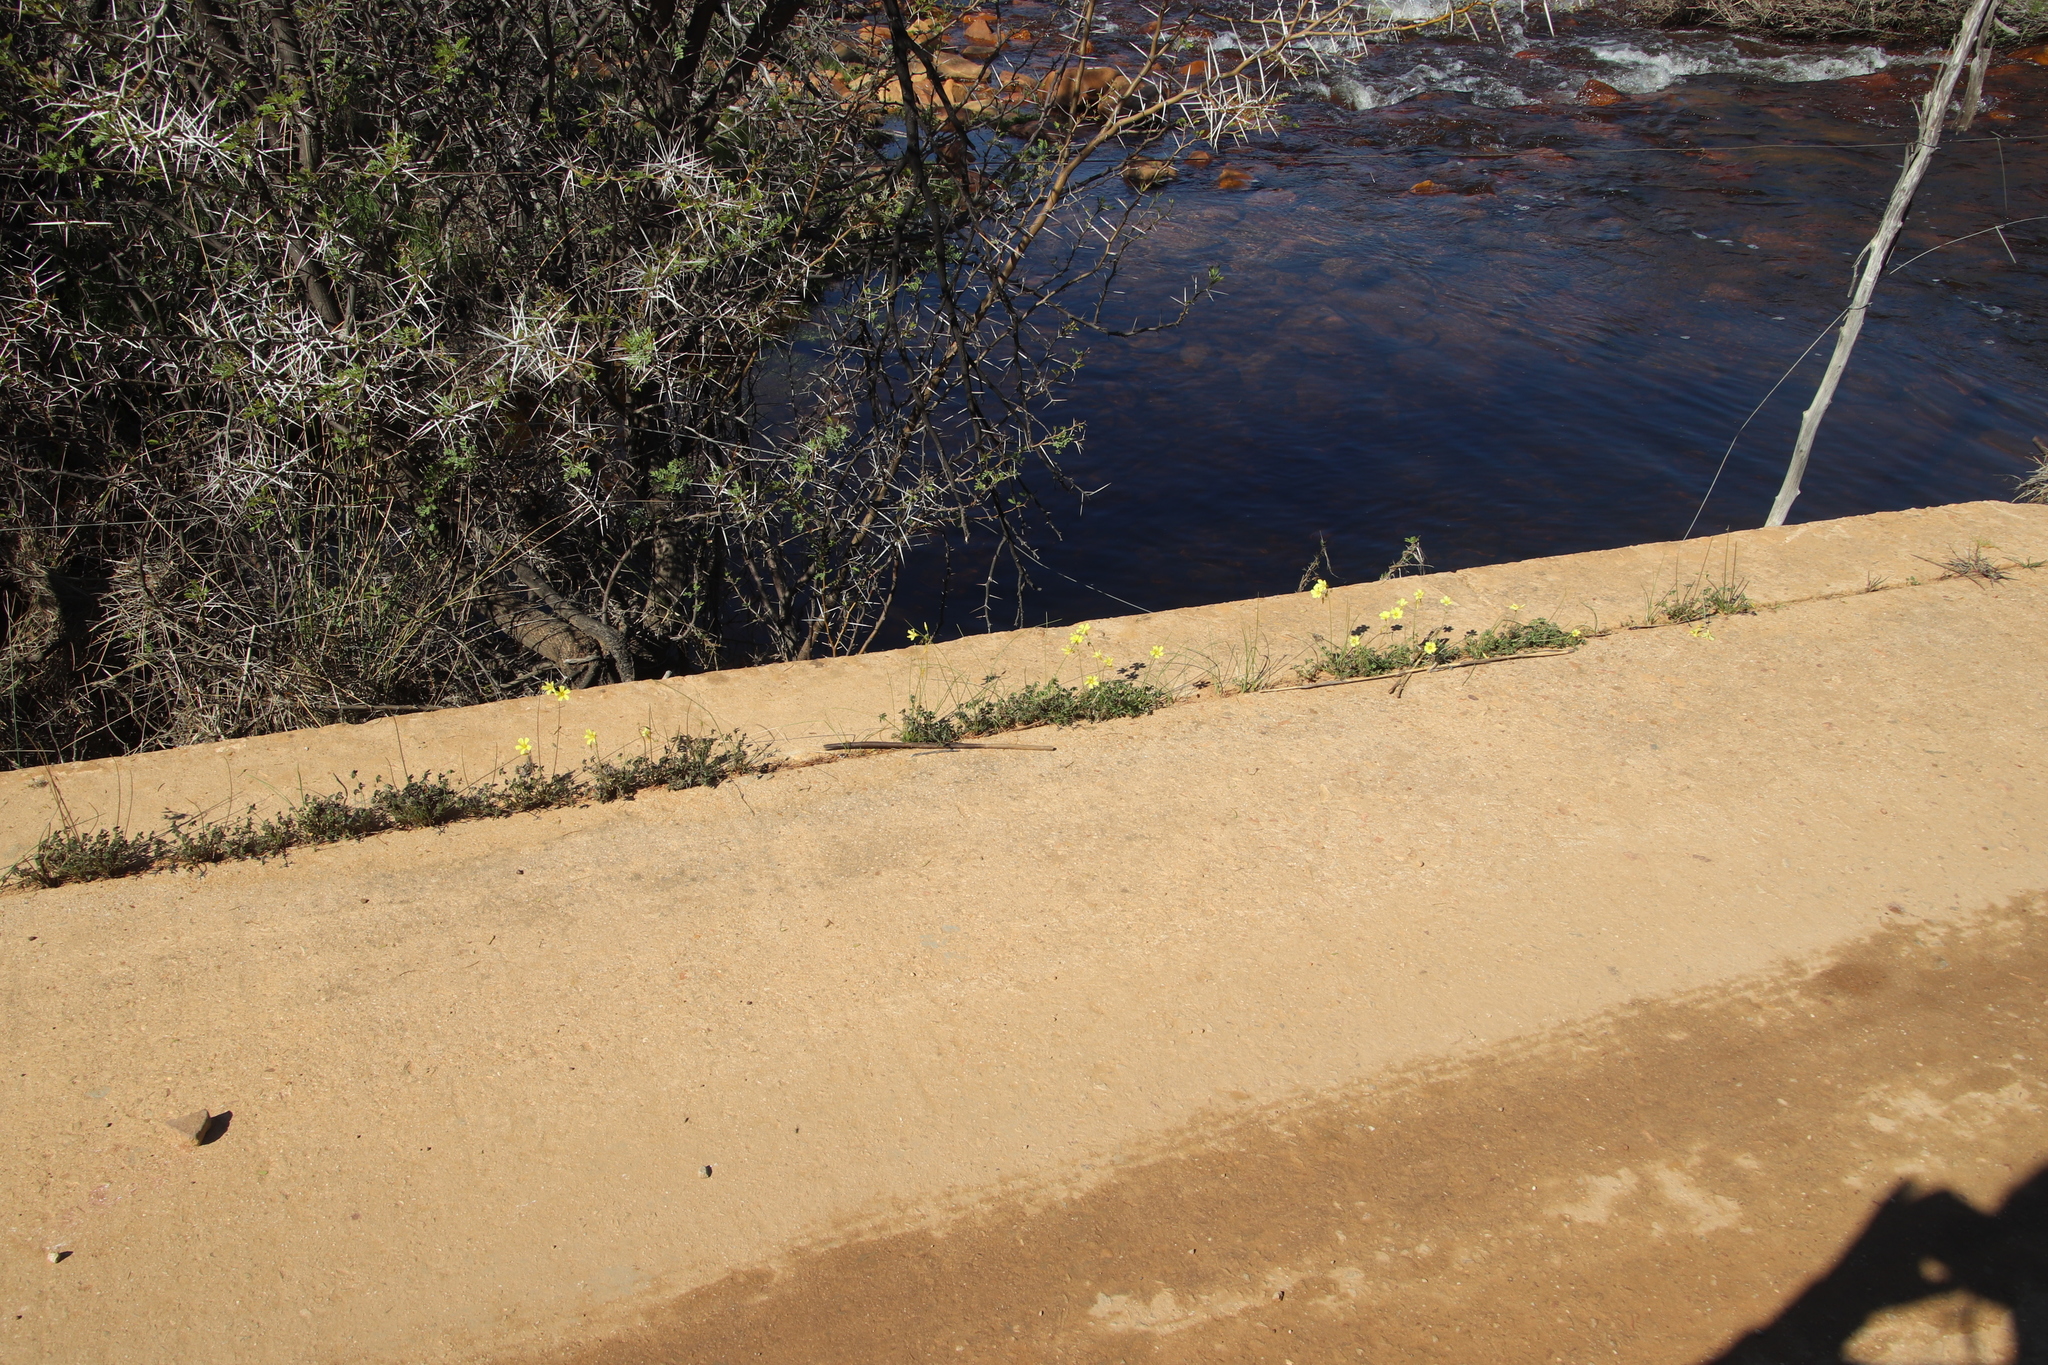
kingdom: Plantae
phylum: Tracheophyta
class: Magnoliopsida
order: Oxalidales
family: Oxalidaceae
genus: Oxalis
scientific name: Oxalis pes-caprae
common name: Bermuda-buttercup
